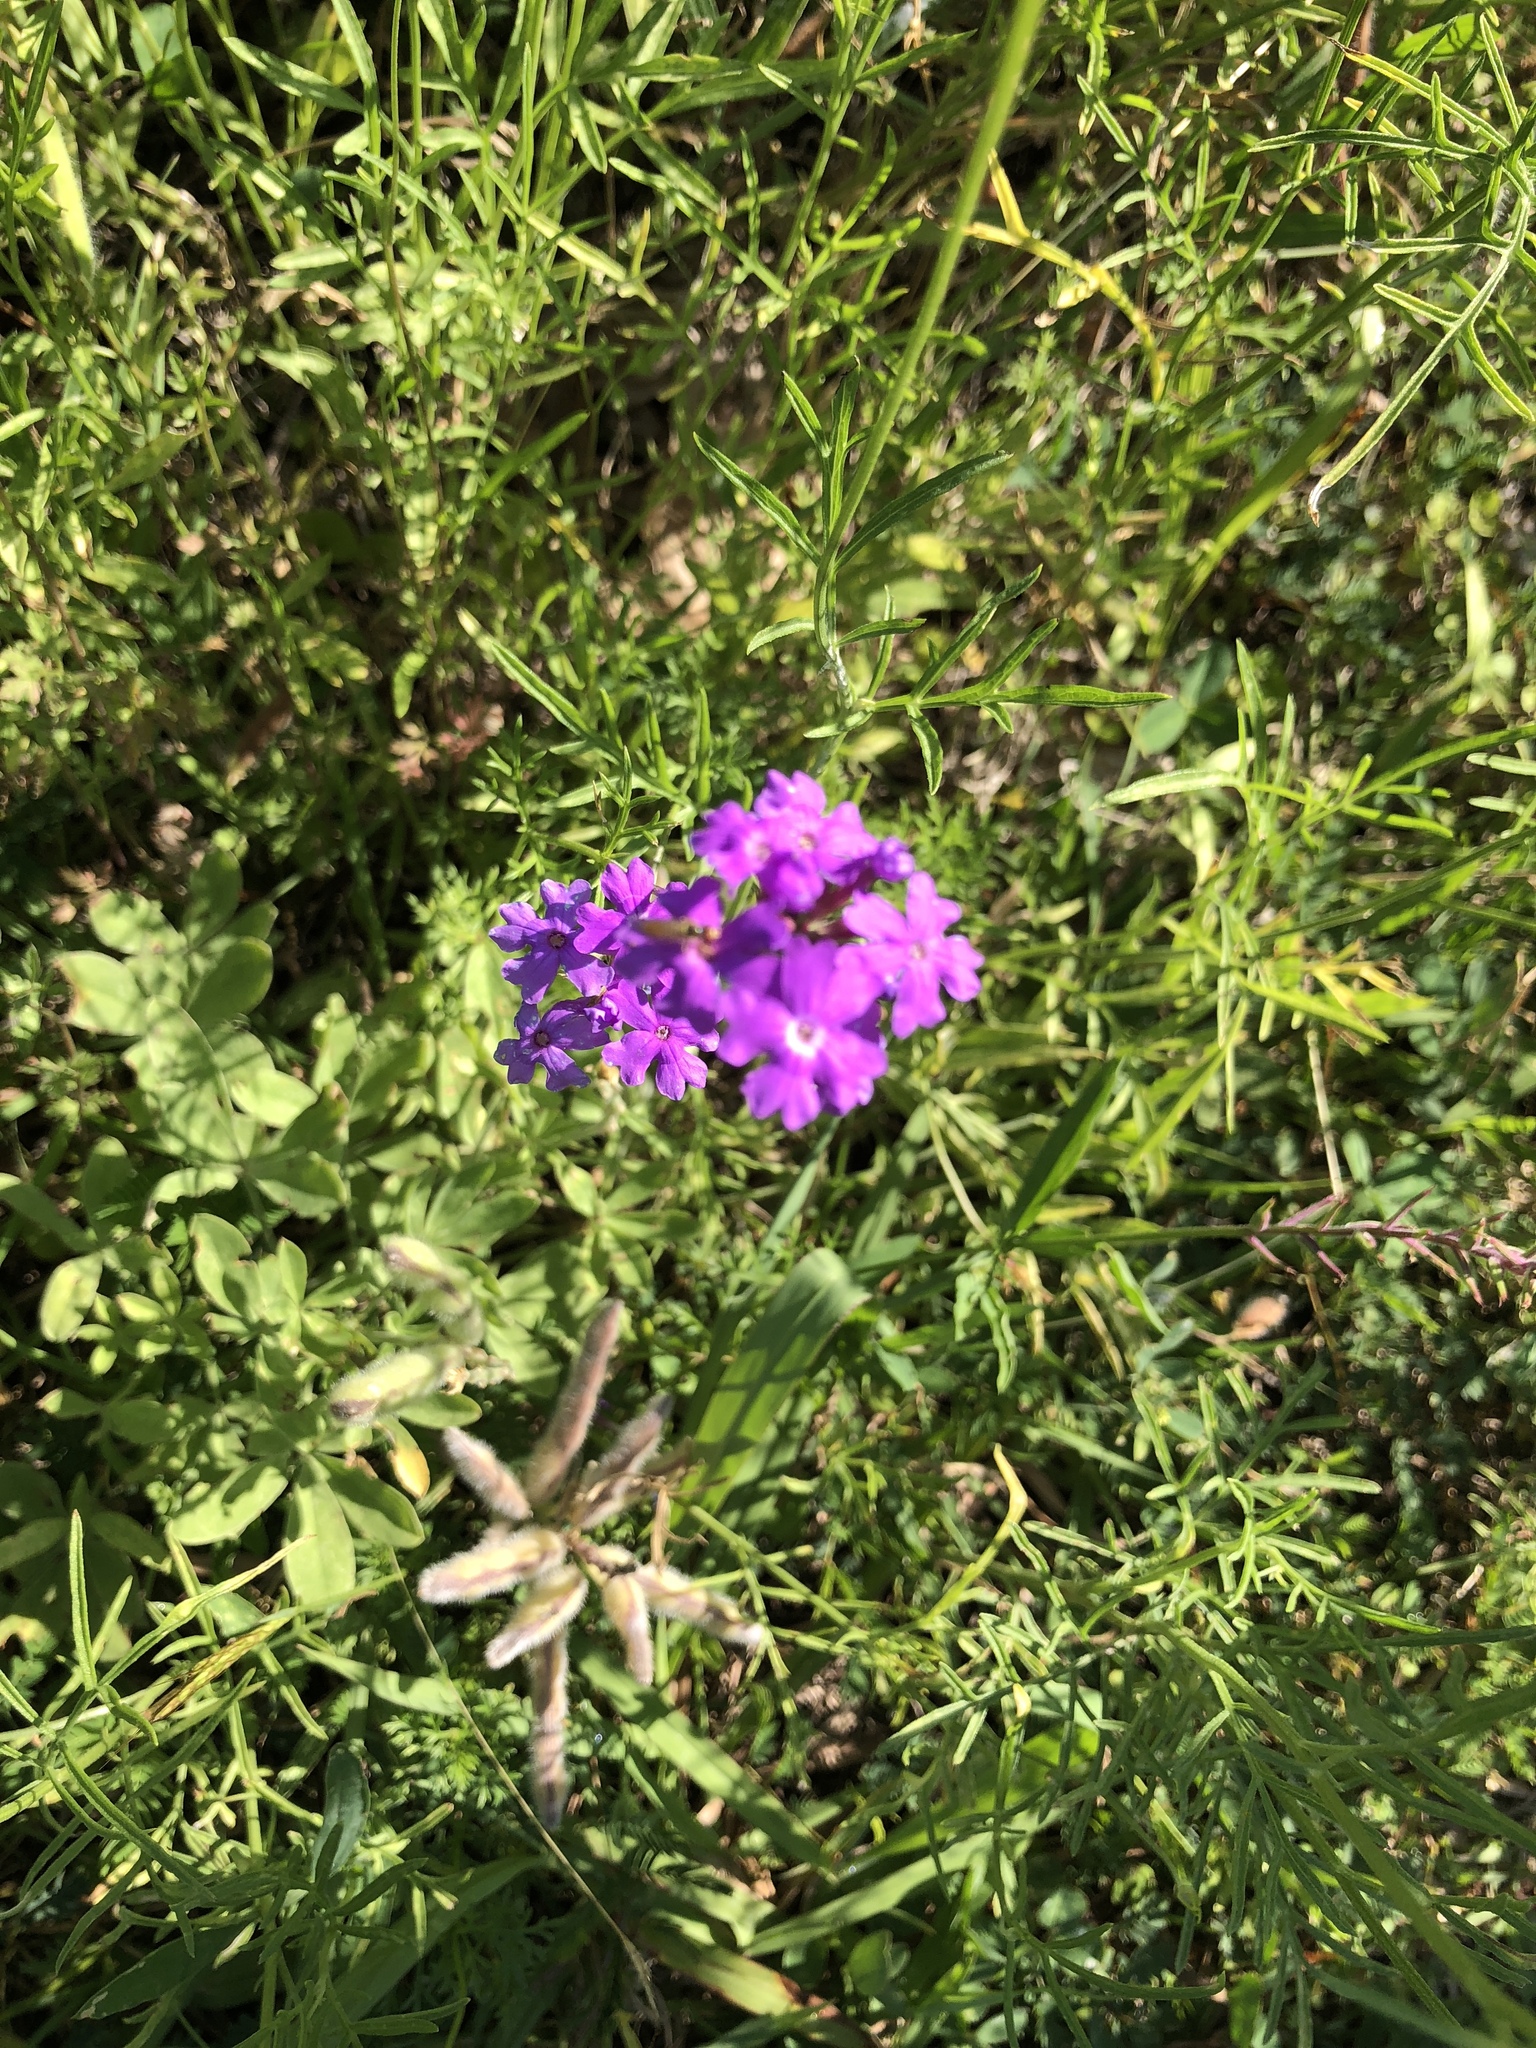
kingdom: Plantae
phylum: Tracheophyta
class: Magnoliopsida
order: Lamiales
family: Verbenaceae
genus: Verbena
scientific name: Verbena bipinnatifida
